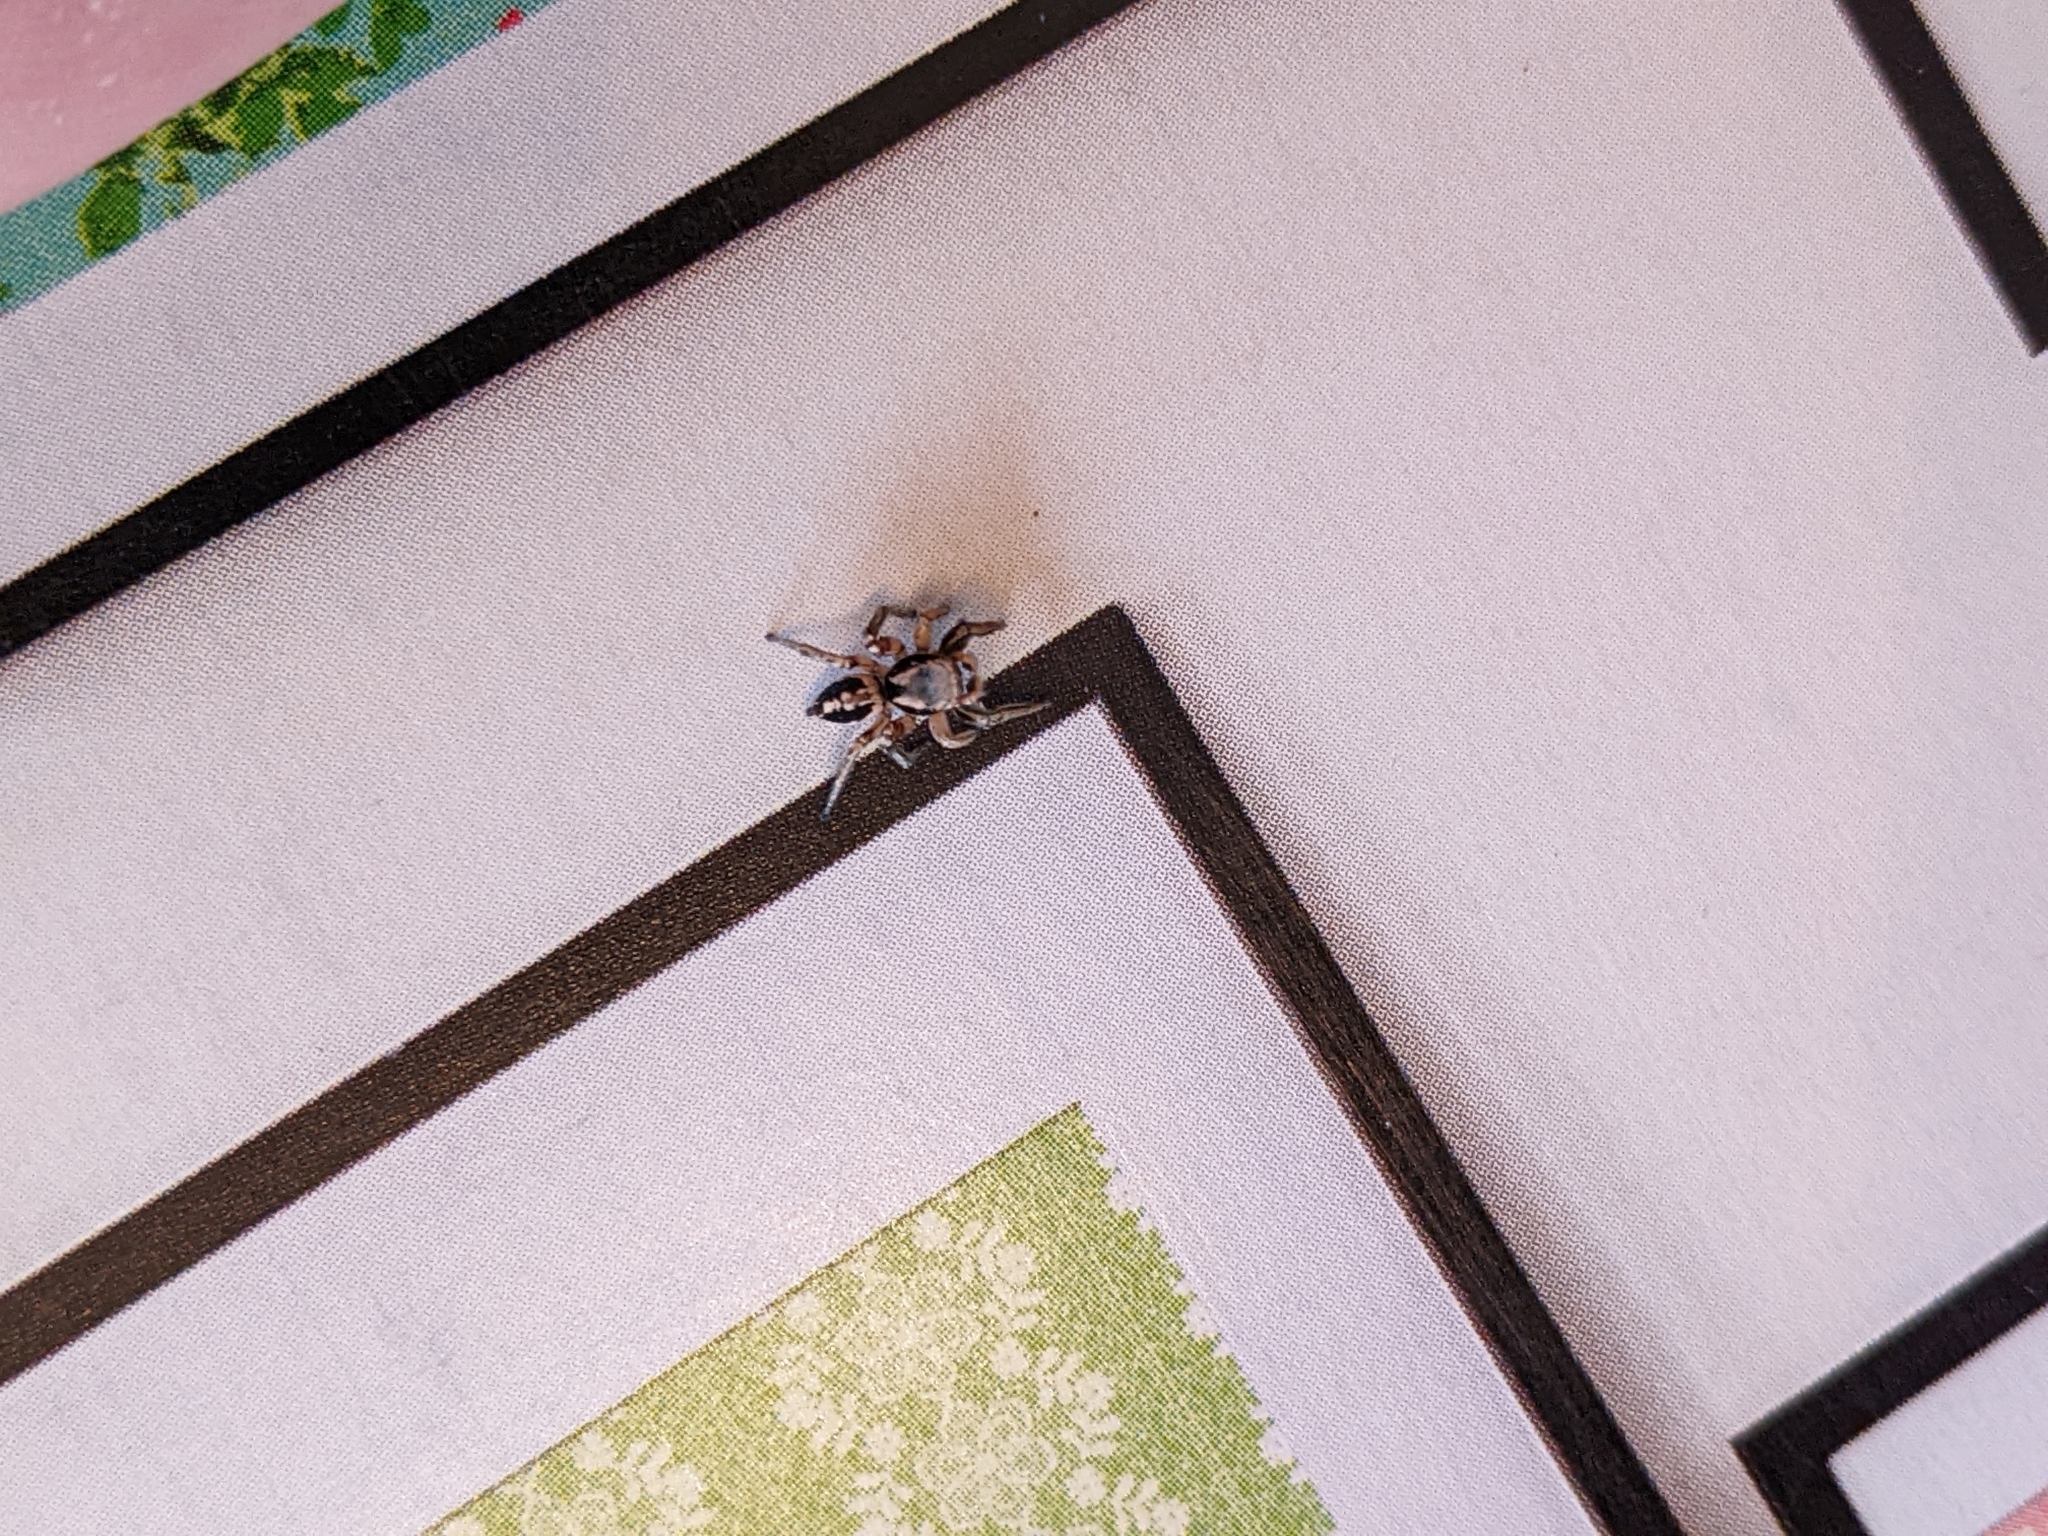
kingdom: Animalia
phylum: Arthropoda
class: Arachnida
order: Araneae
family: Salticidae
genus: Habronattus
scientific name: Habronattus pyrrithrix
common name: Jumping spider
